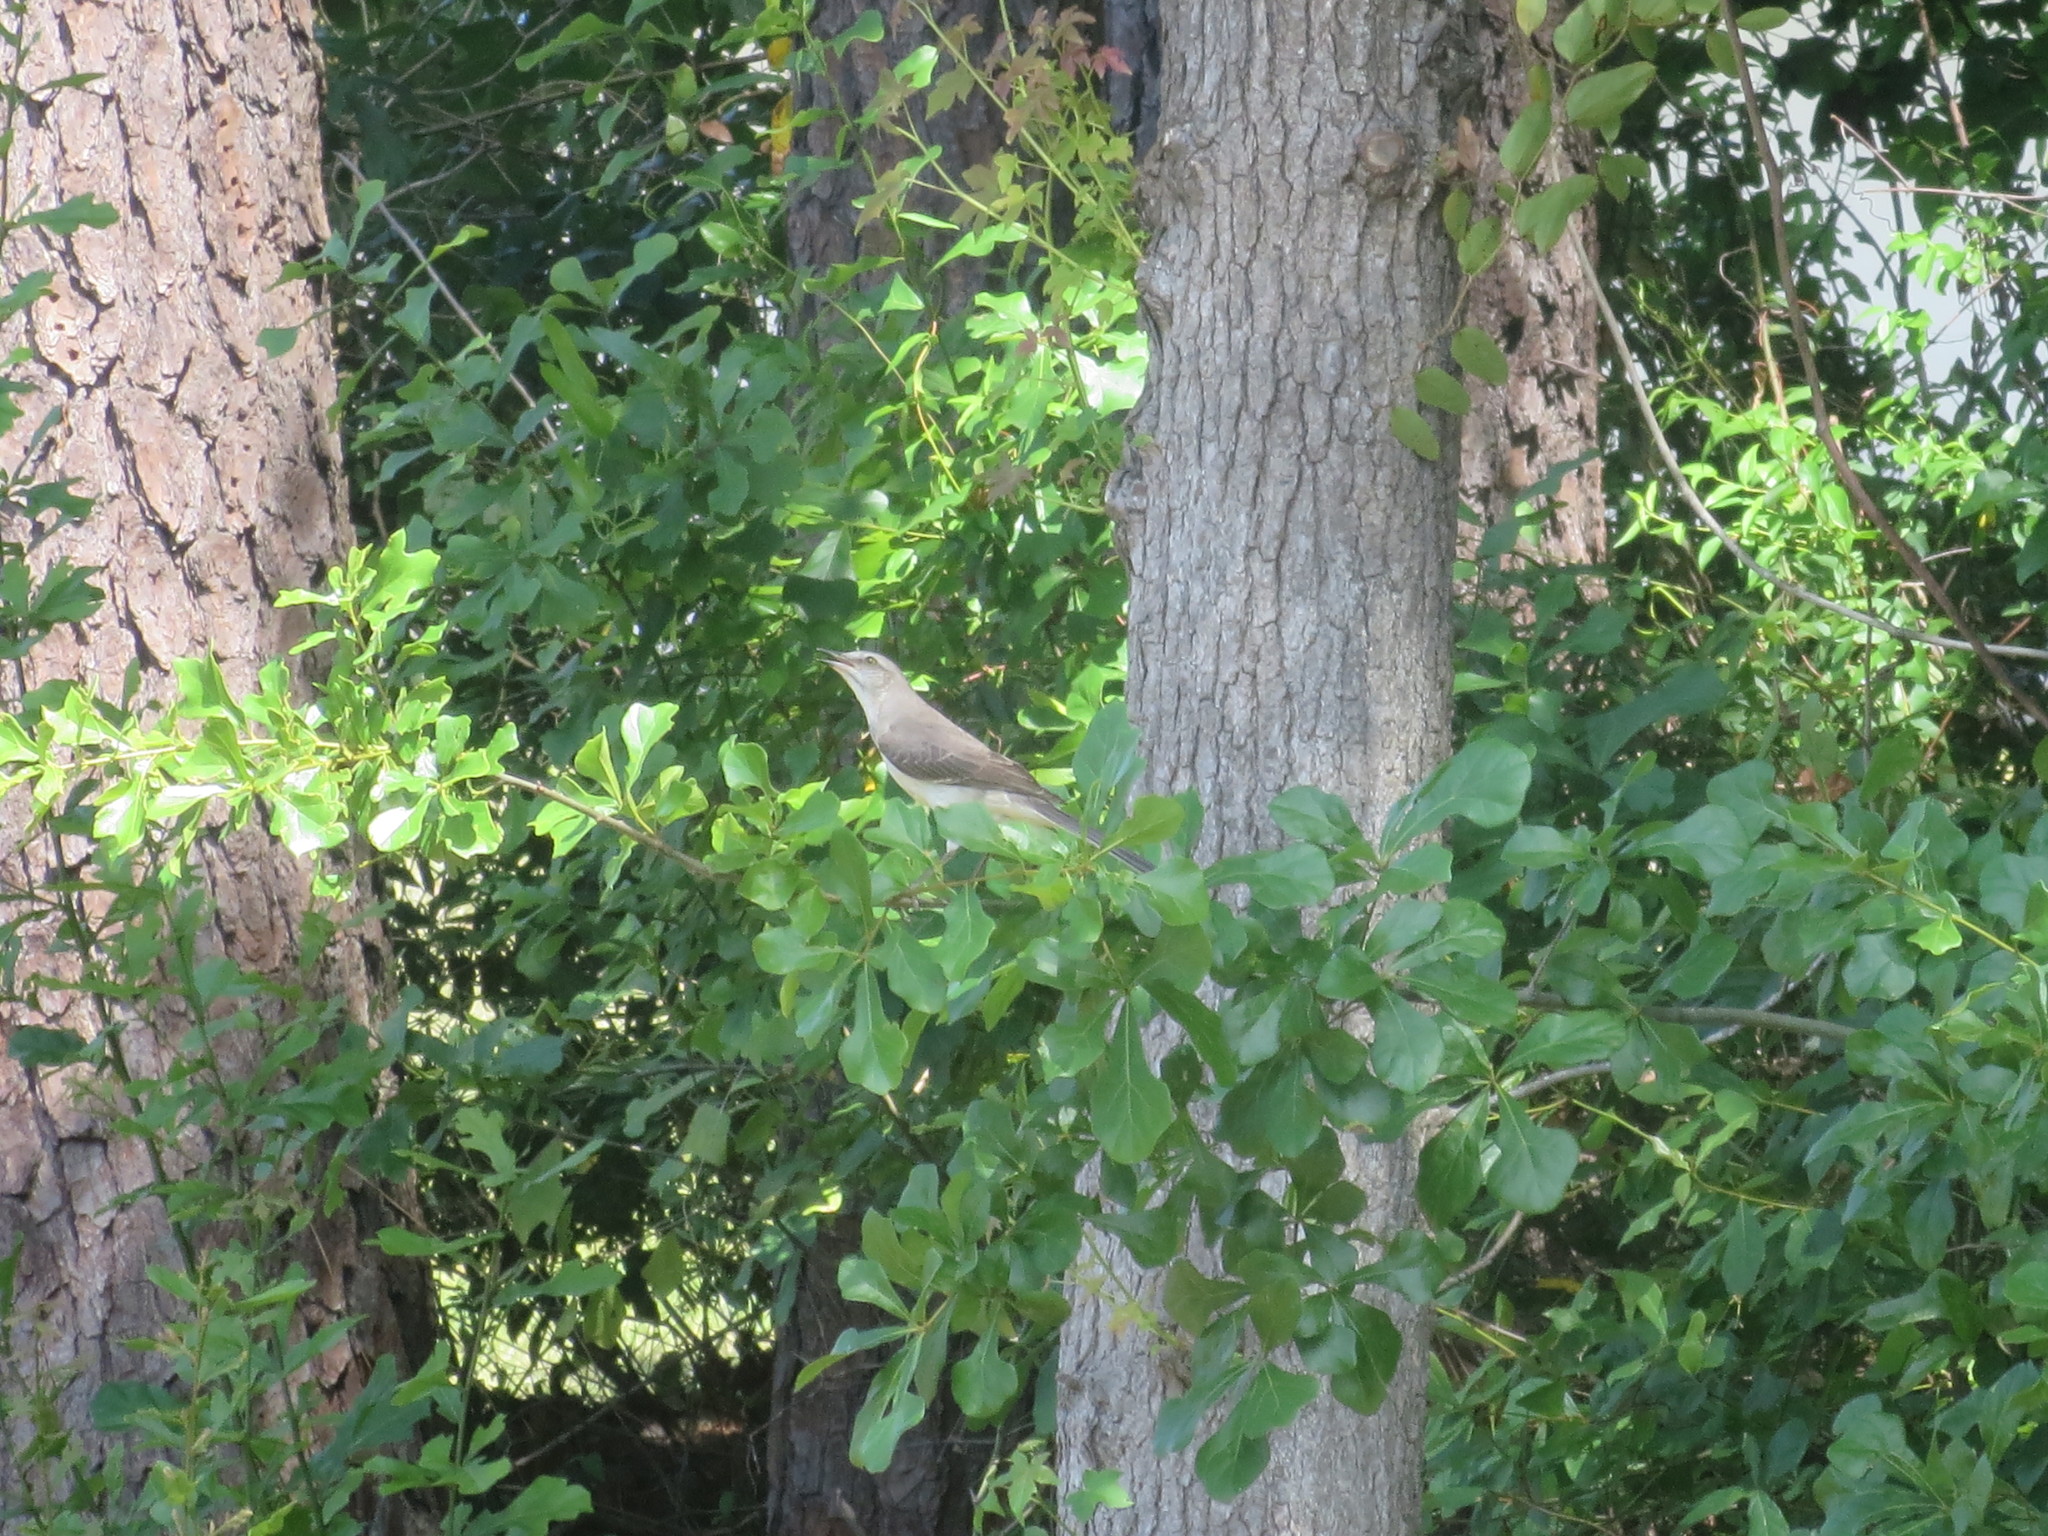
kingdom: Animalia
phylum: Chordata
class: Aves
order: Passeriformes
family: Mimidae
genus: Mimus
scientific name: Mimus polyglottos
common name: Northern mockingbird
